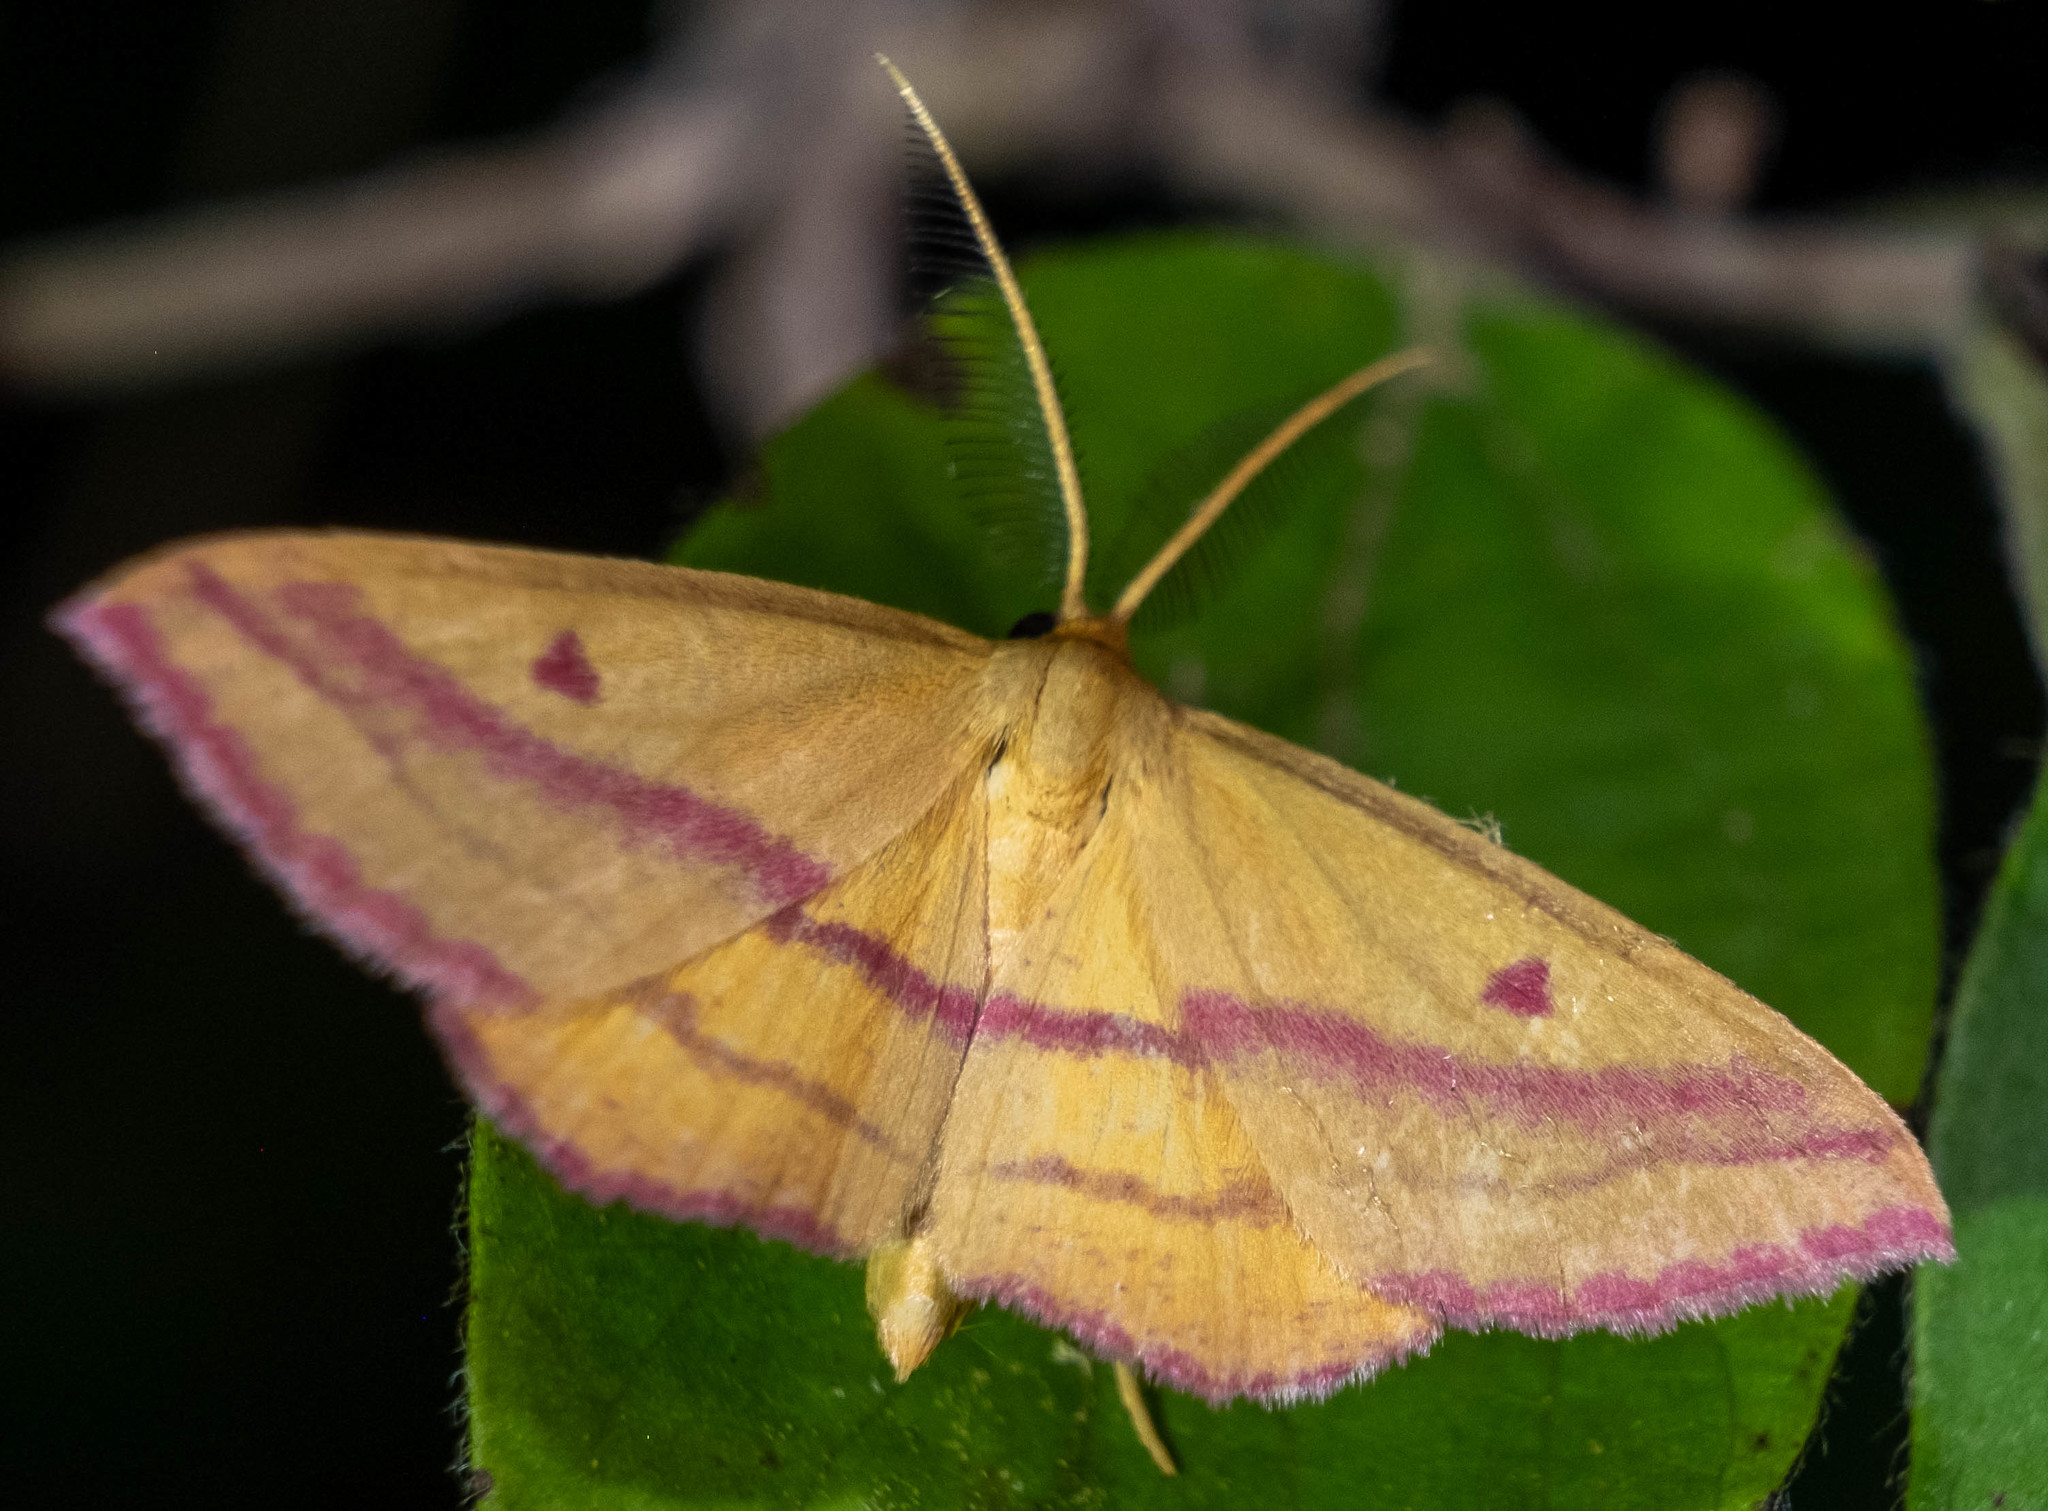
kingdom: Animalia
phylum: Arthropoda
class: Insecta
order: Lepidoptera
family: Geometridae
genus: Haematopis
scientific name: Haematopis grataria
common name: Chickweed geometer
